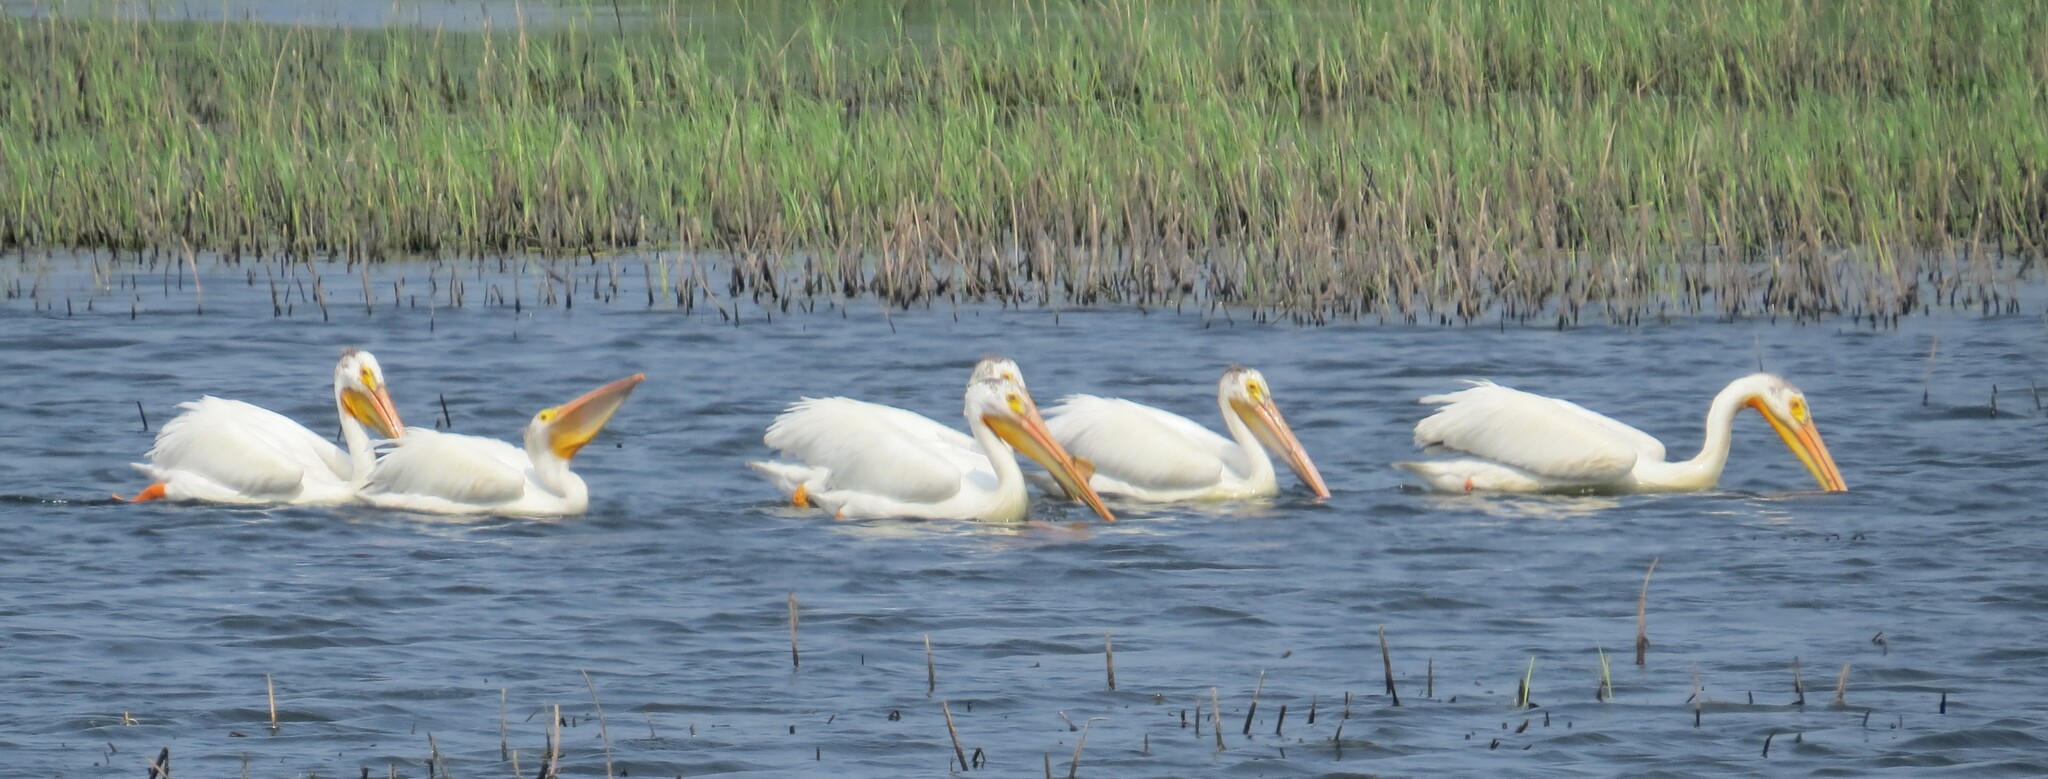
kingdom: Animalia
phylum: Chordata
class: Aves
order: Pelecaniformes
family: Pelecanidae
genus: Pelecanus
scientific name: Pelecanus erythrorhynchos
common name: American white pelican
